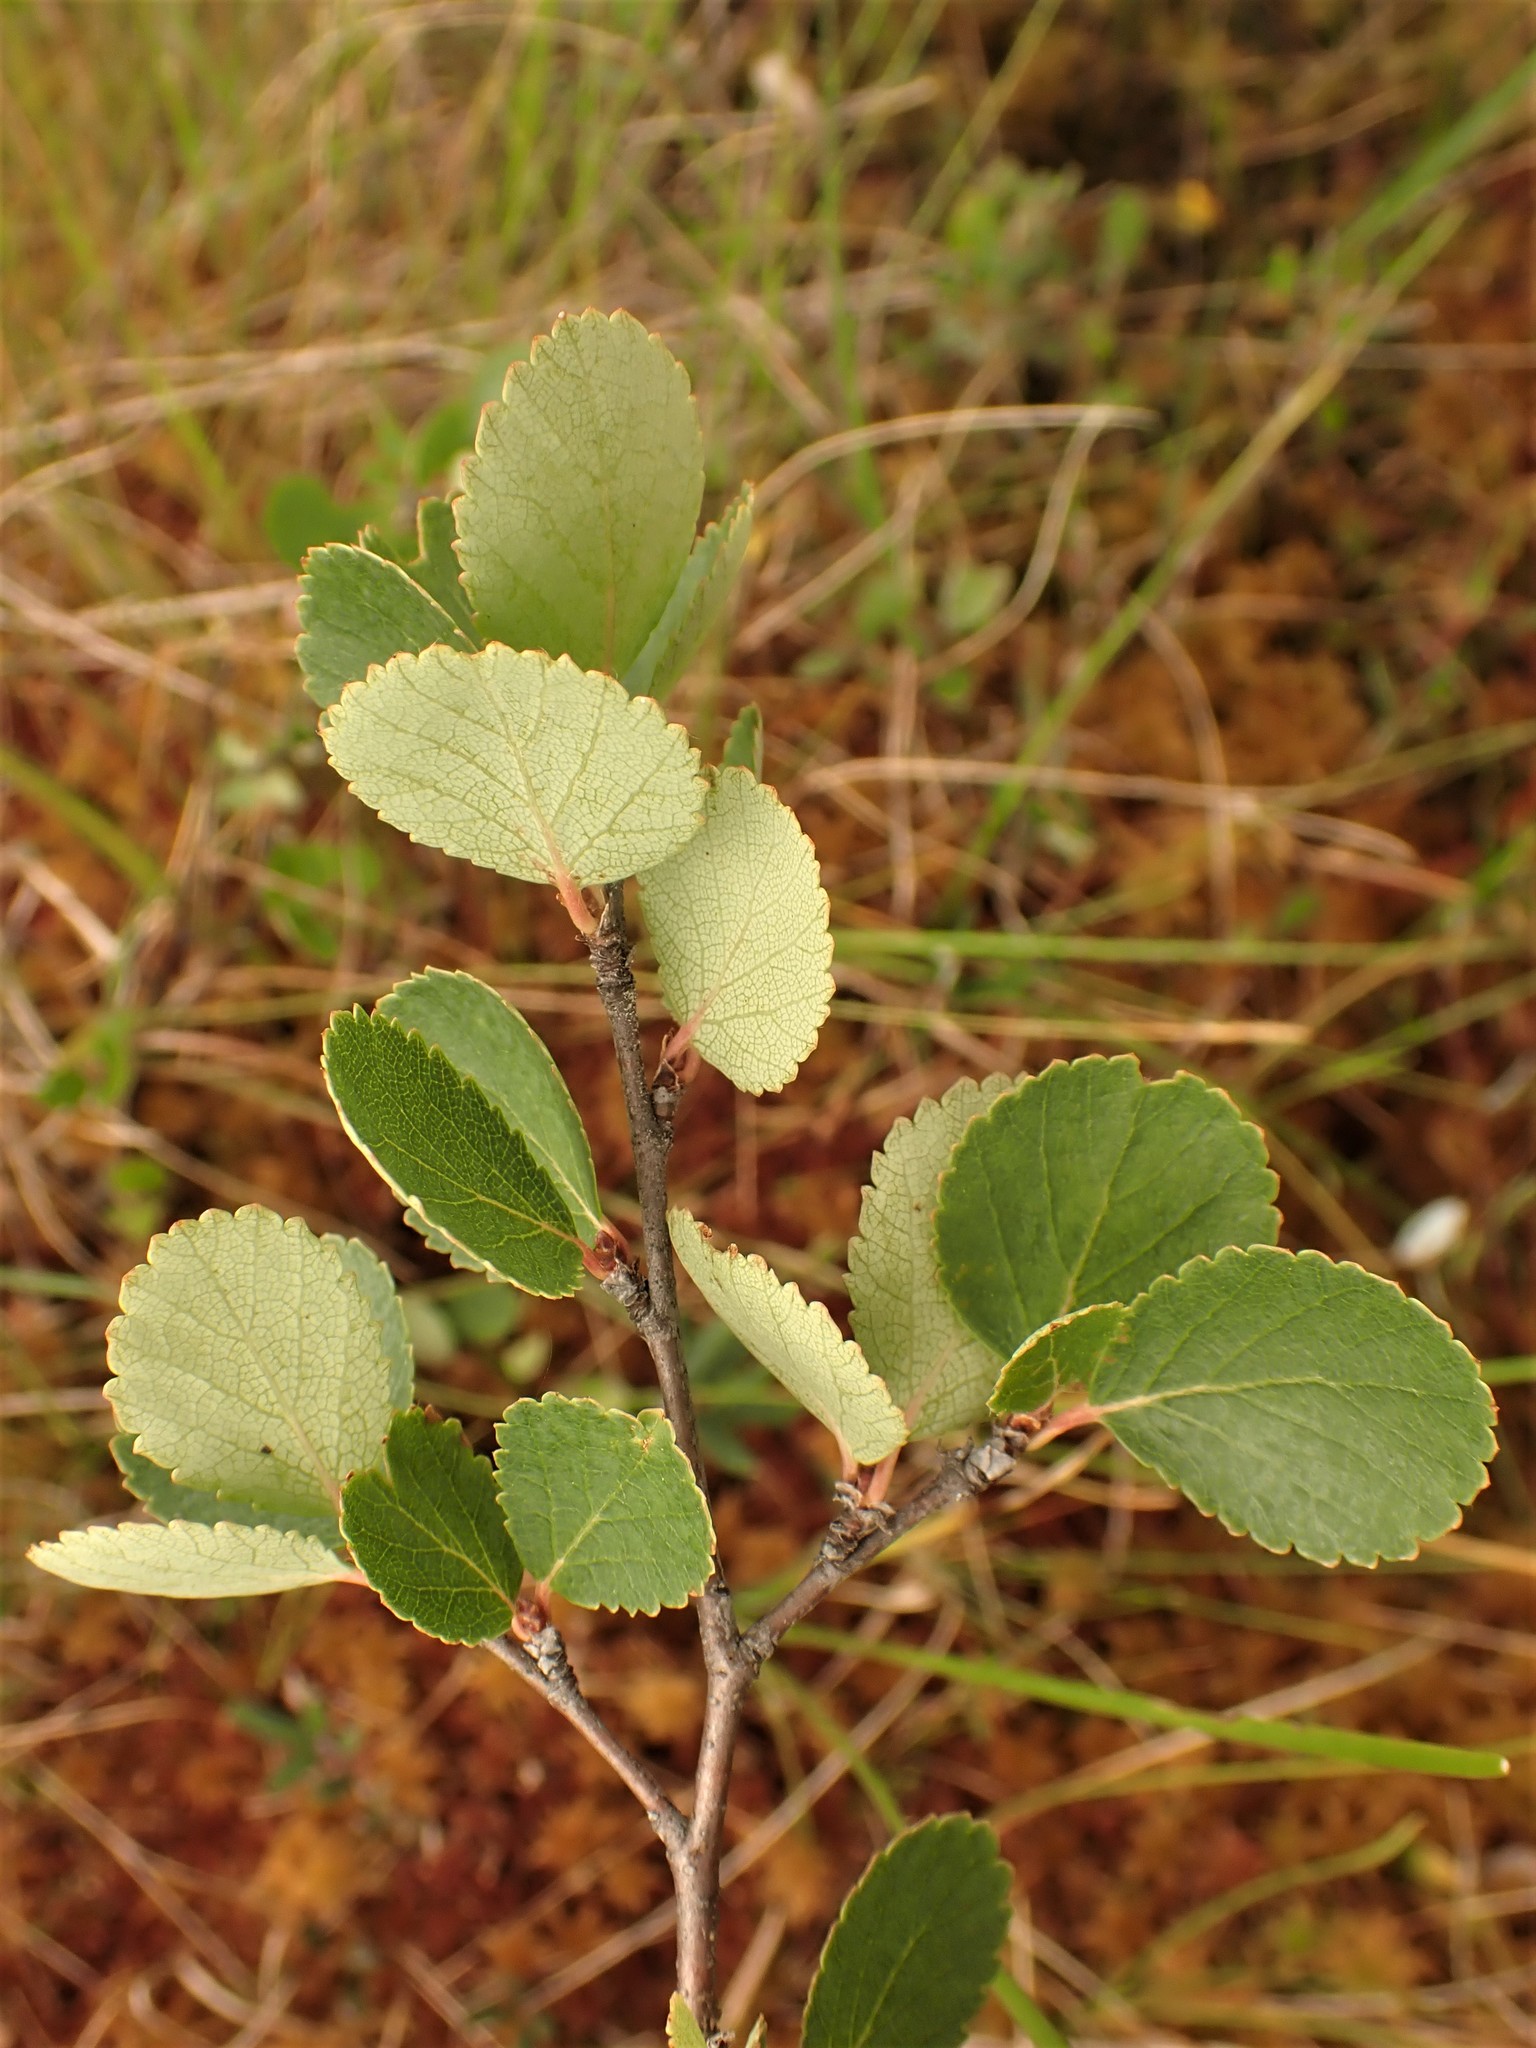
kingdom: Plantae
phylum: Tracheophyta
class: Magnoliopsida
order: Fagales
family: Betulaceae
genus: Betula
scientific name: Betula pumila
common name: Bog birch
